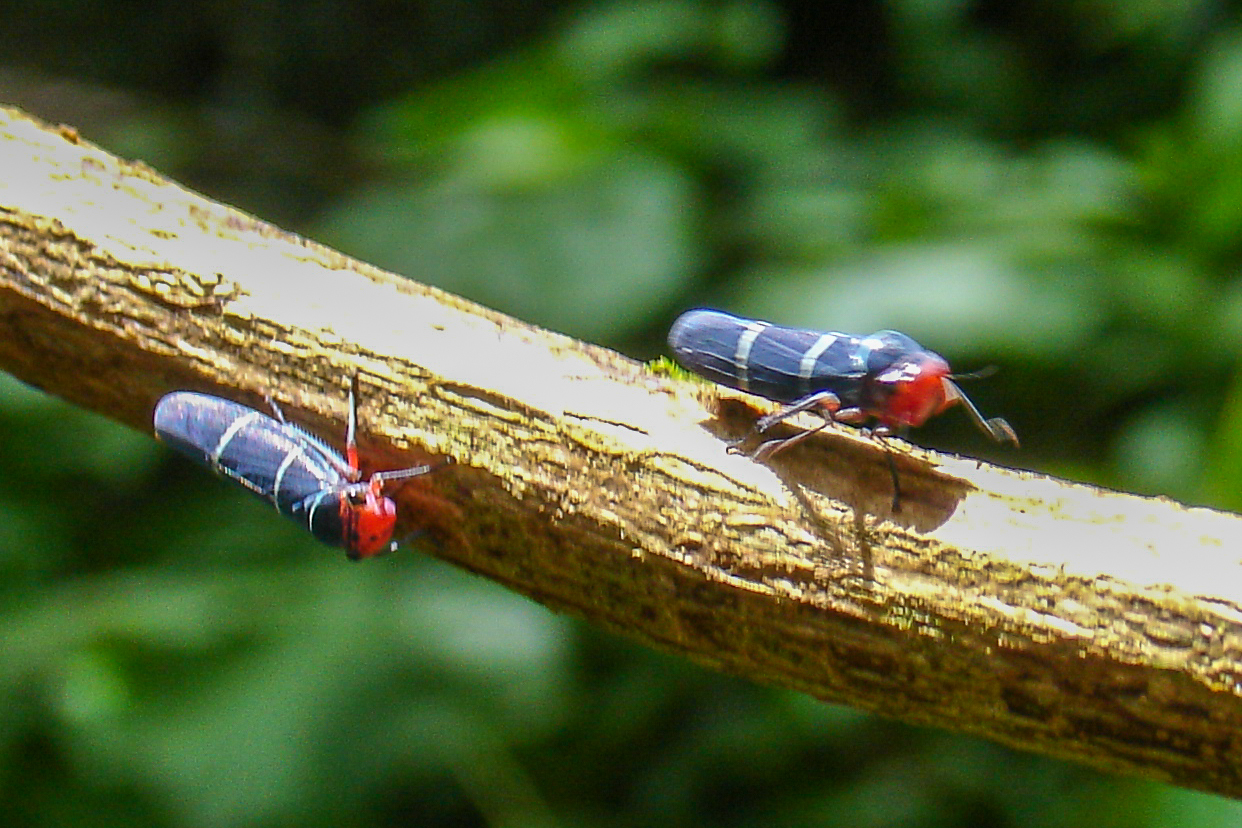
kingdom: Animalia
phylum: Arthropoda
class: Insecta
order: Hemiptera
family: Cicadellidae
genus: Amblyscarta
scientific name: Amblyscarta ruficeps
